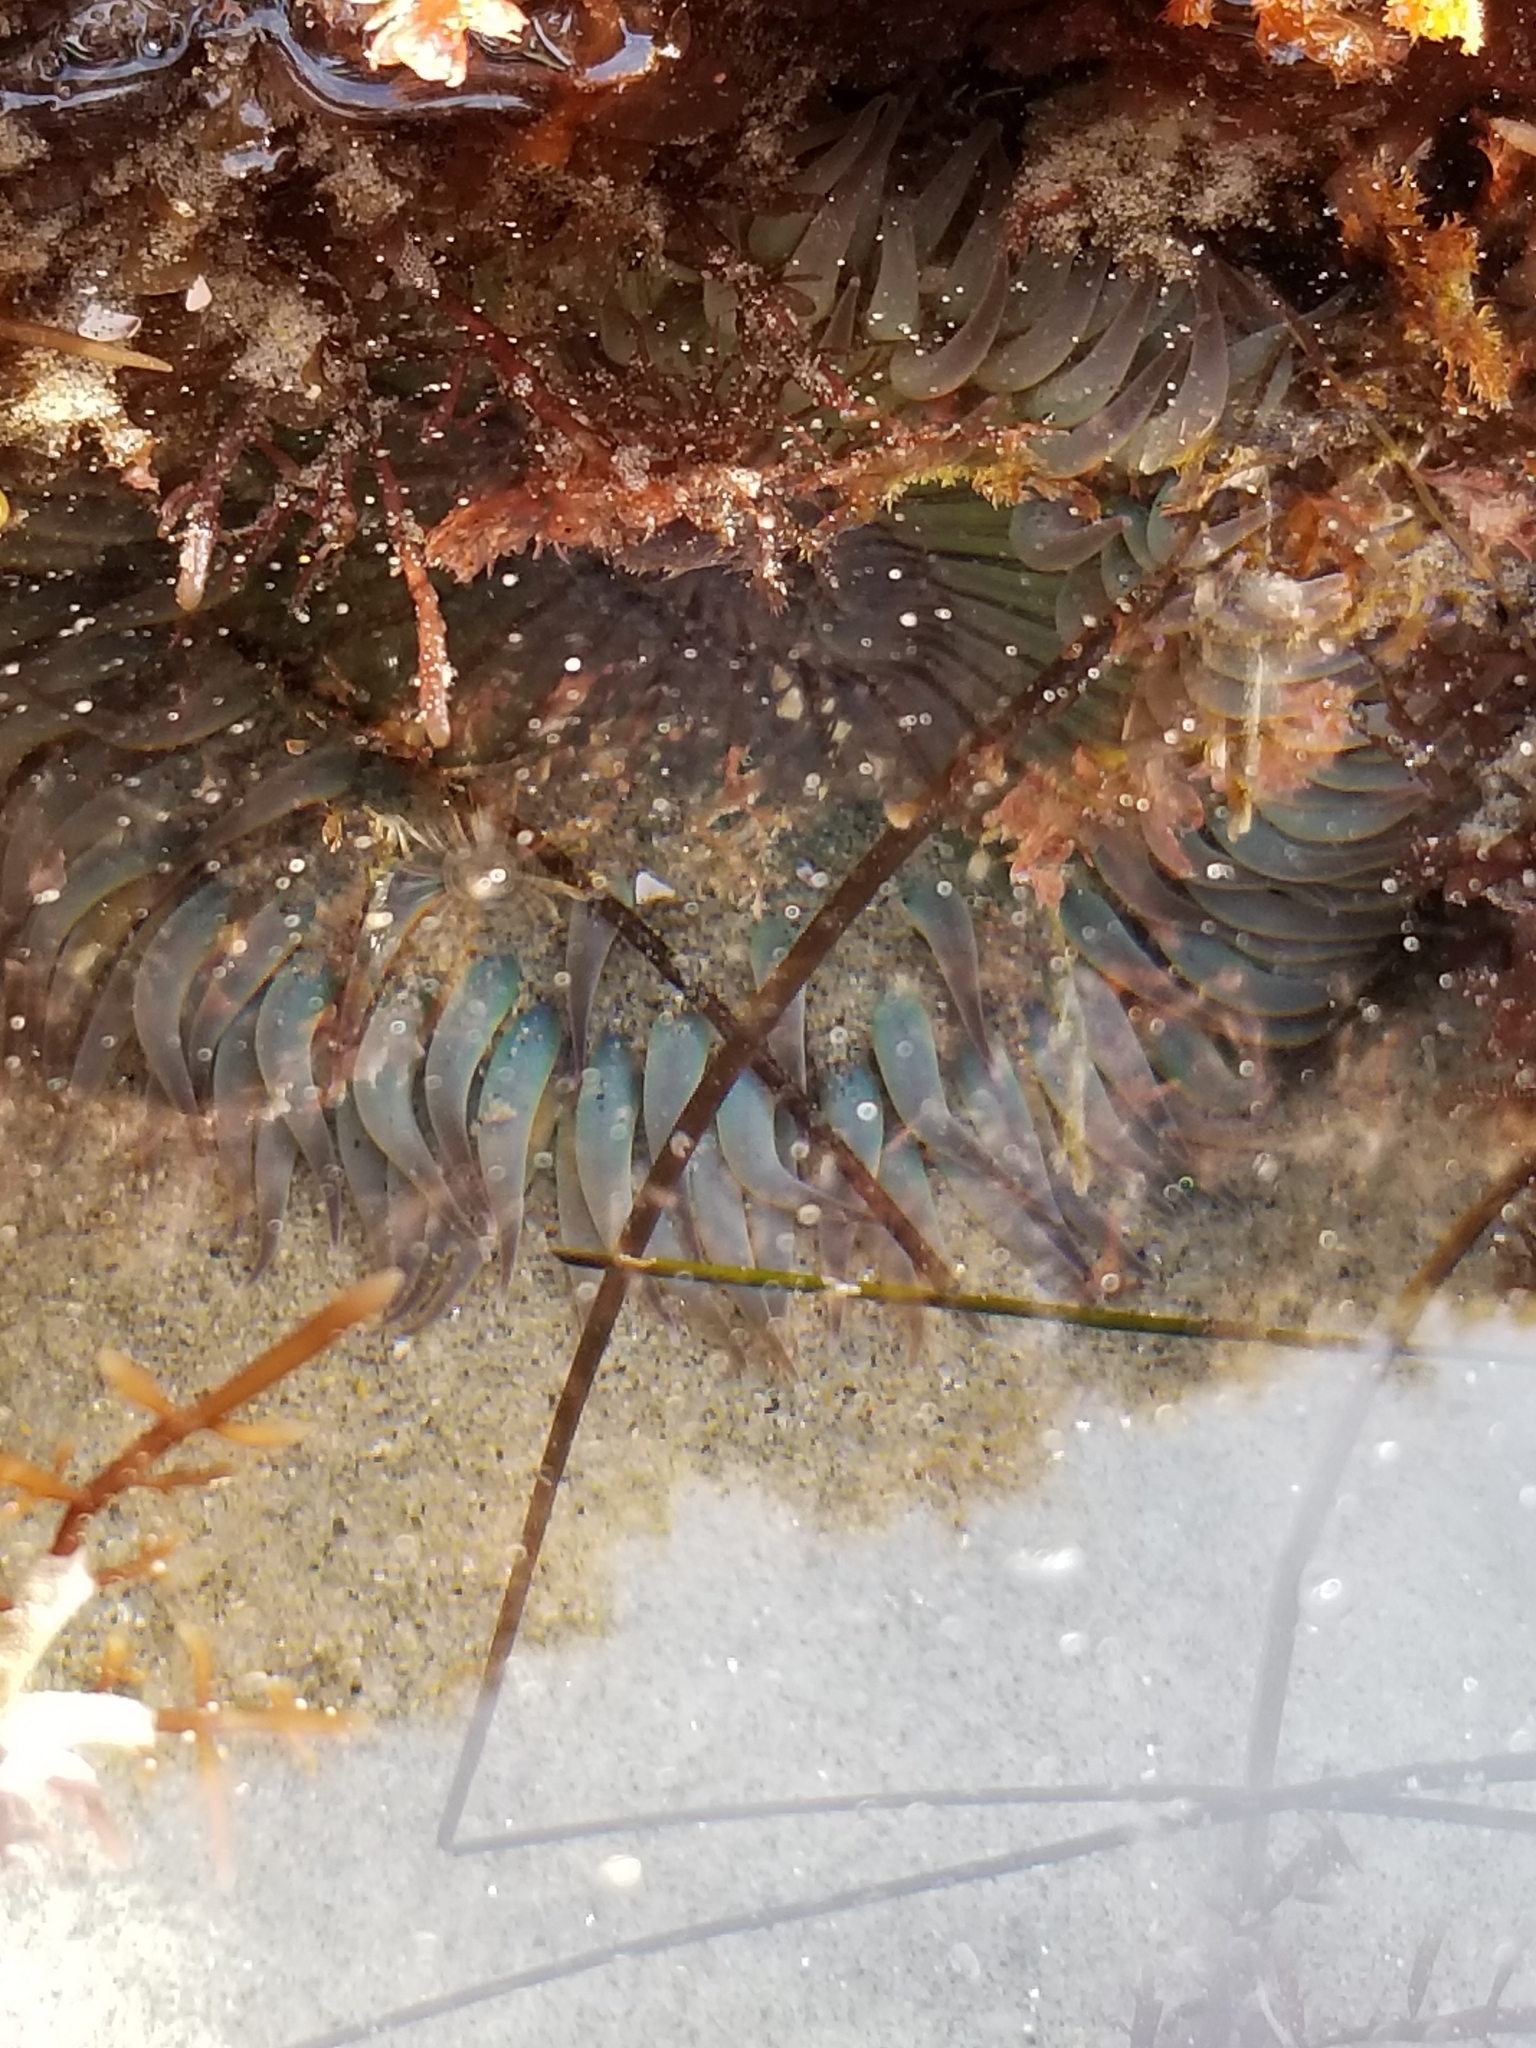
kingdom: Animalia
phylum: Cnidaria
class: Anthozoa
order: Actiniaria
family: Actiniidae
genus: Anthopleura
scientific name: Anthopleura sola
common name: Sun anemone
